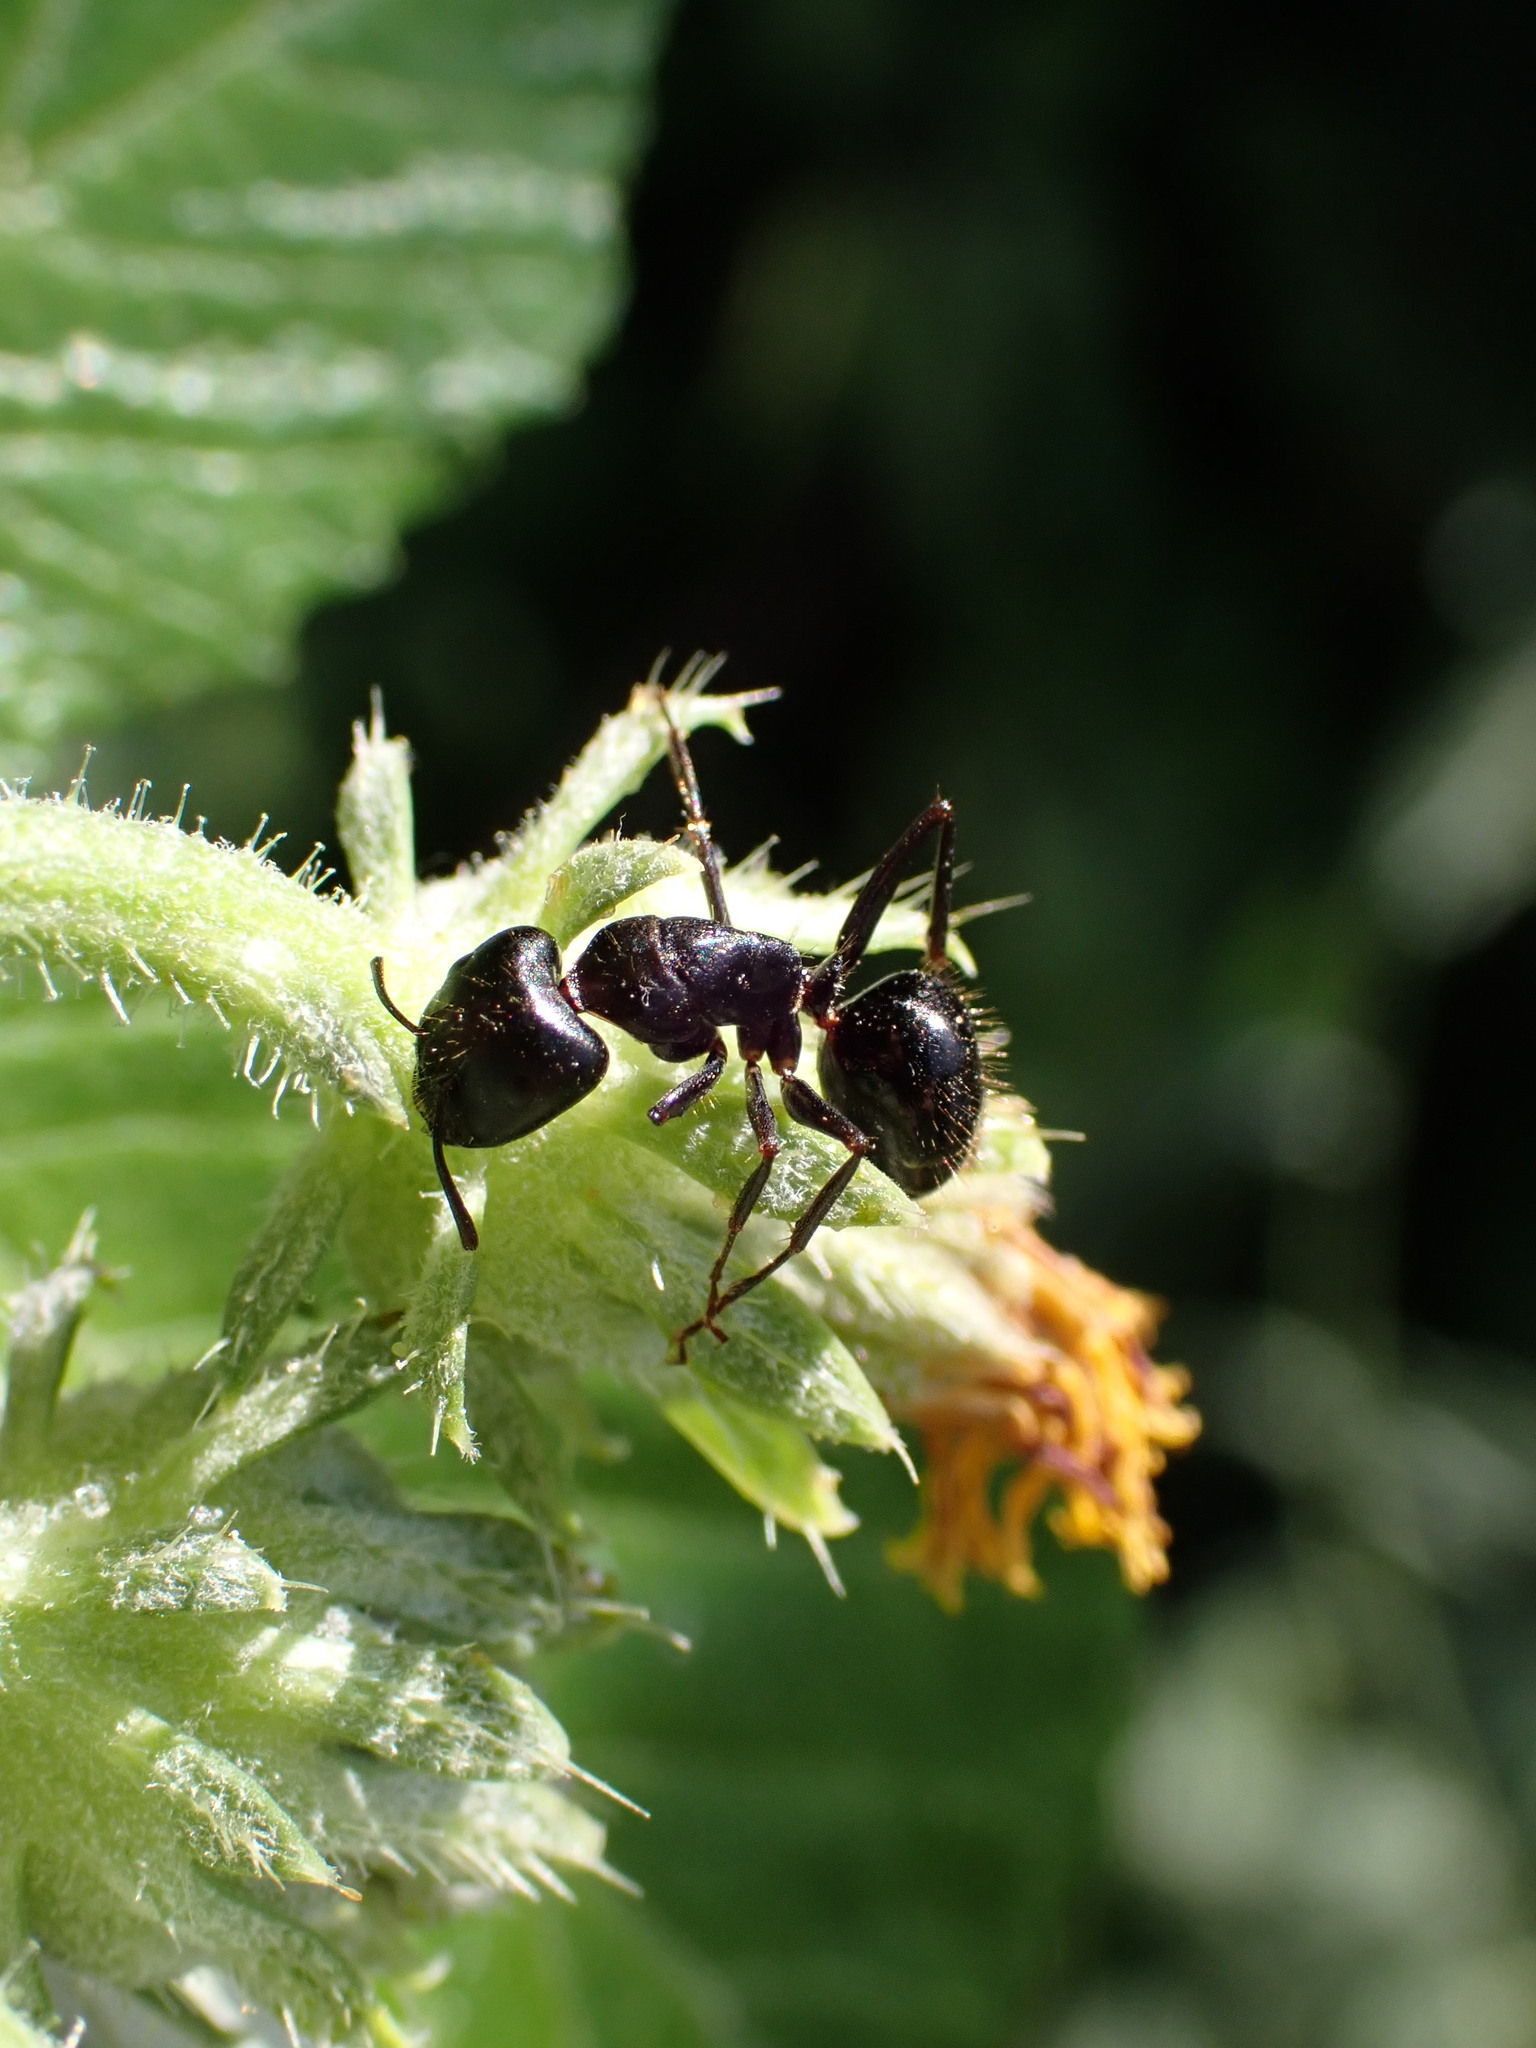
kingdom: Animalia
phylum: Arthropoda
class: Insecta
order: Hymenoptera
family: Formicidae
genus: Camponotus
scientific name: Camponotus aethiops
